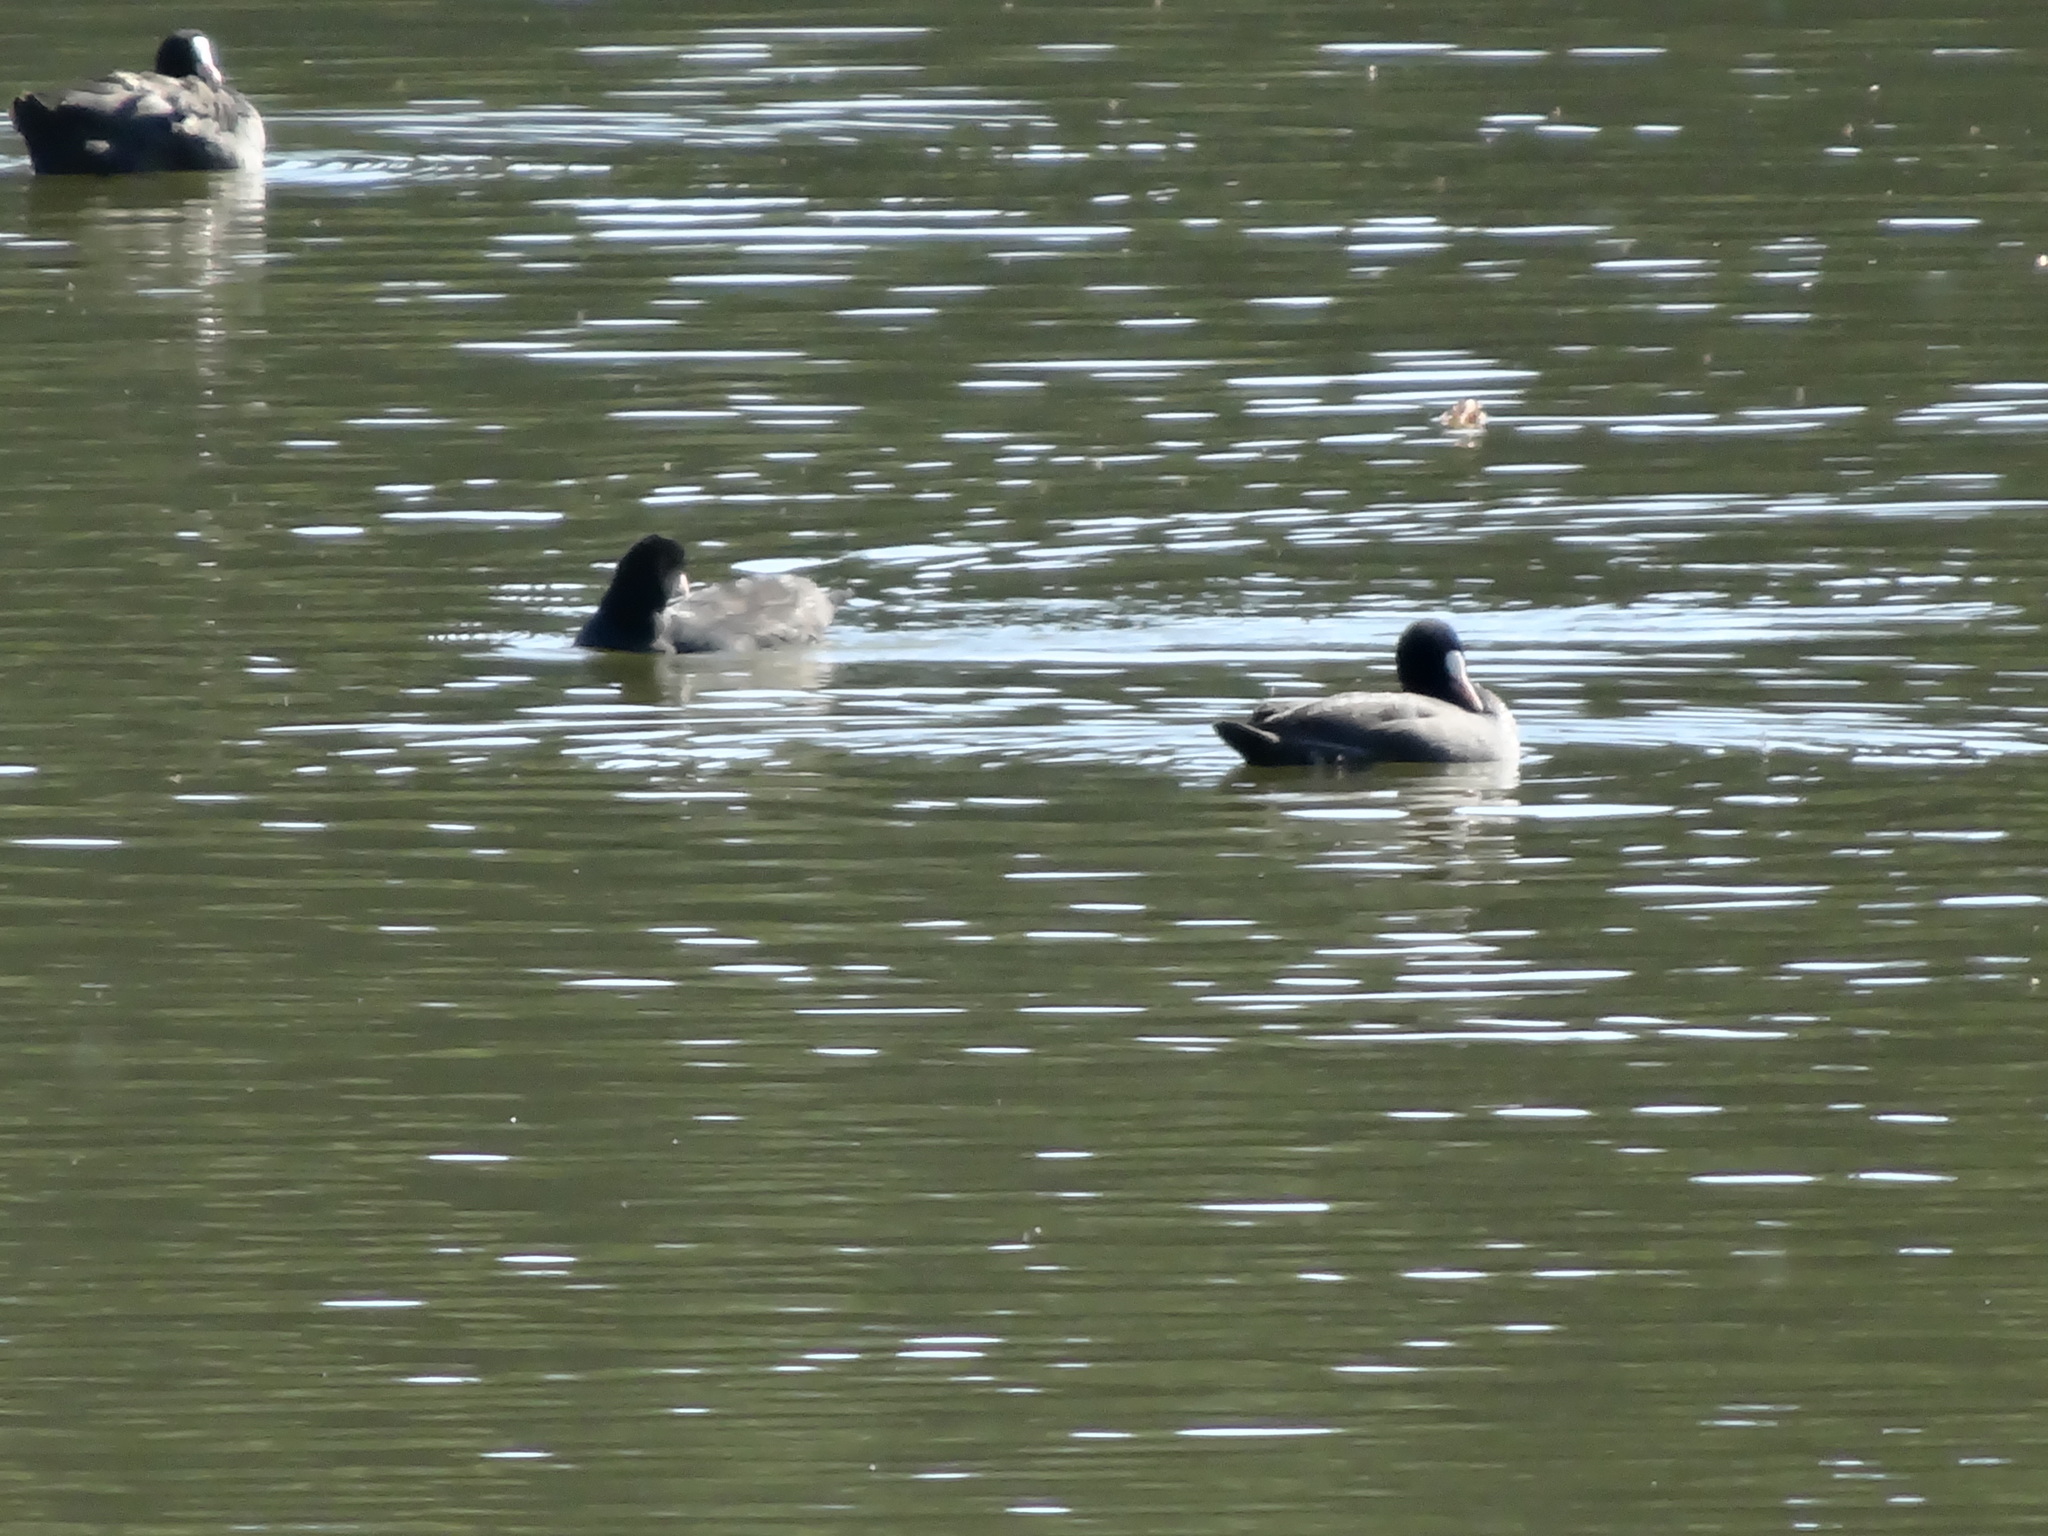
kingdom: Animalia
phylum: Chordata
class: Aves
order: Gruiformes
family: Rallidae
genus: Fulica
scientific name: Fulica atra
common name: Eurasian coot
